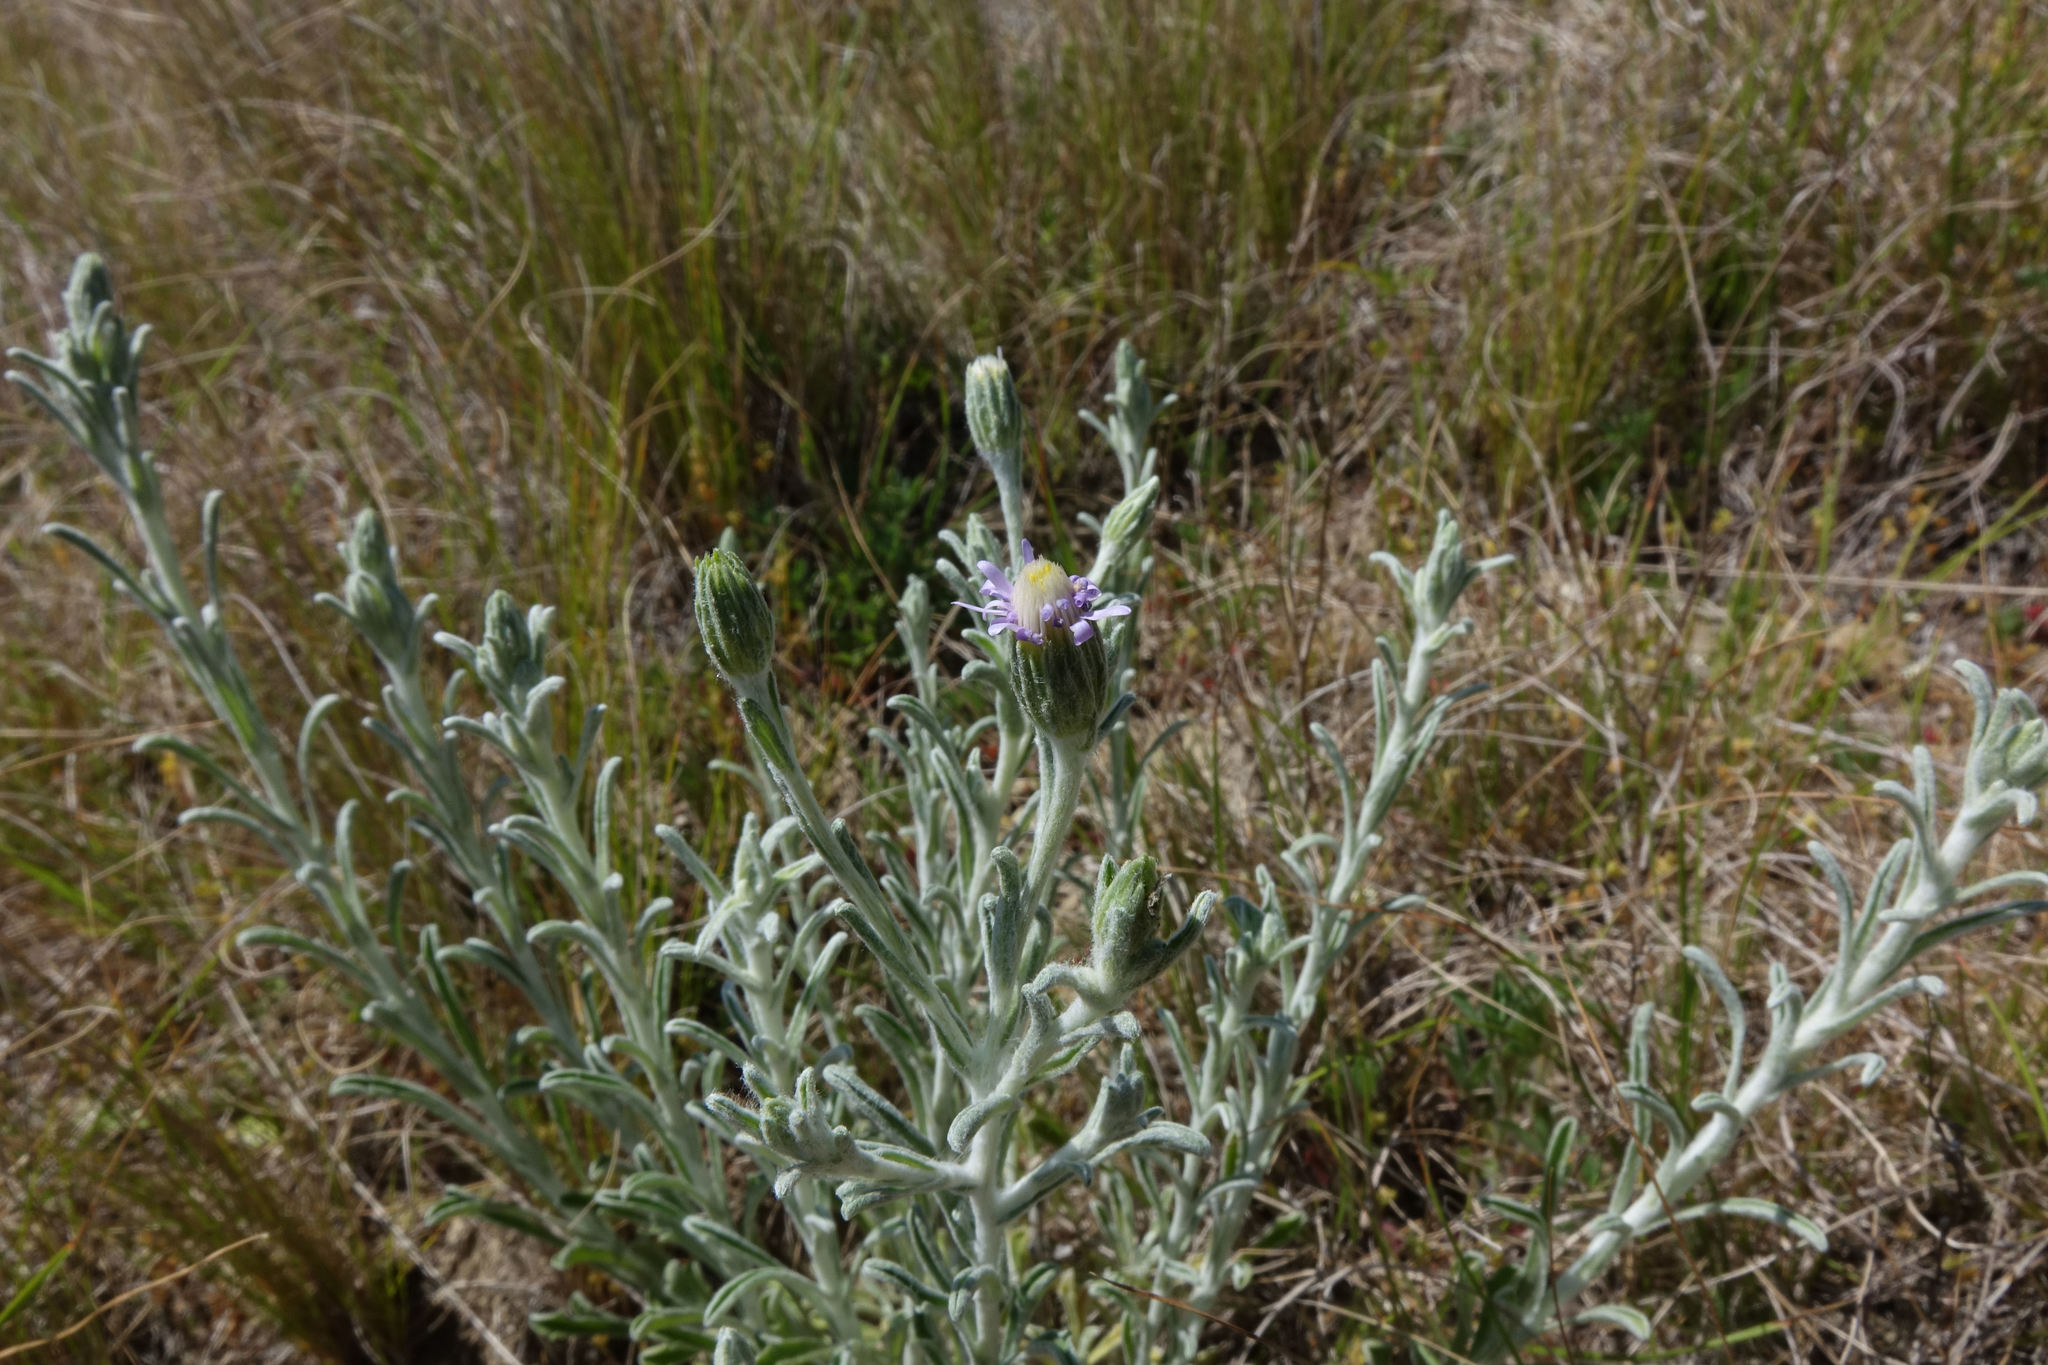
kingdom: Plantae
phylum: Tracheophyta
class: Magnoliopsida
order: Asterales
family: Asteraceae
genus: Vittadinia
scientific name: Vittadinia gracilis
